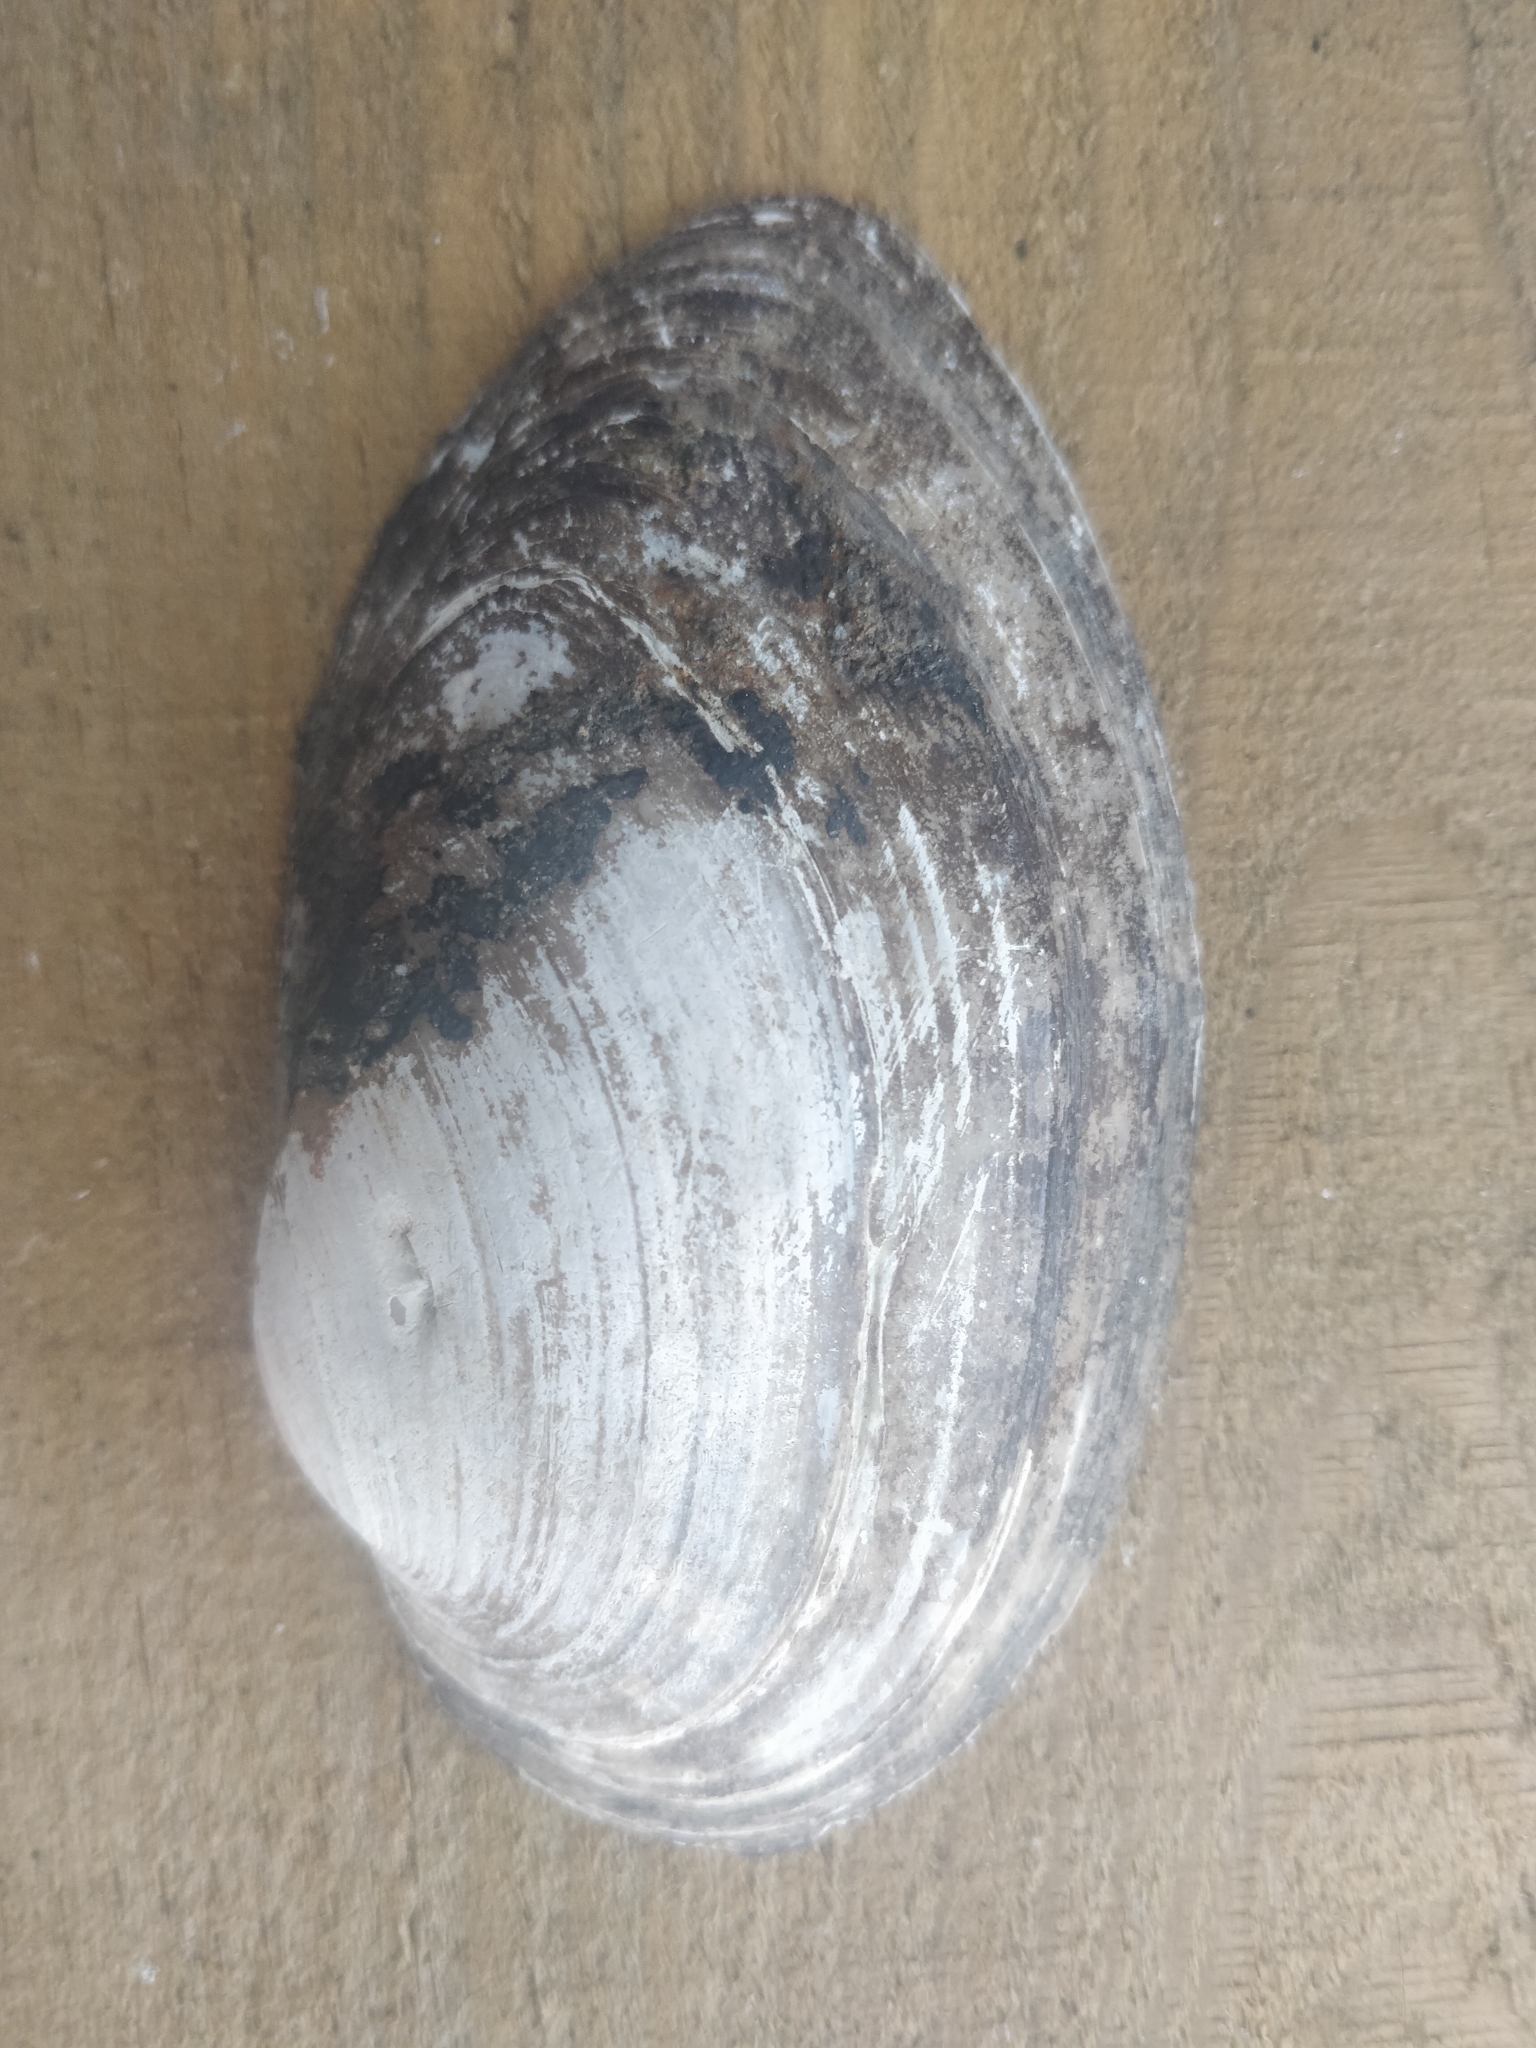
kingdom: Animalia
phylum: Mollusca
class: Bivalvia
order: Unionida
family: Unionidae
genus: Pyganodon
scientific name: Pyganodon grandis
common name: Giant floater
